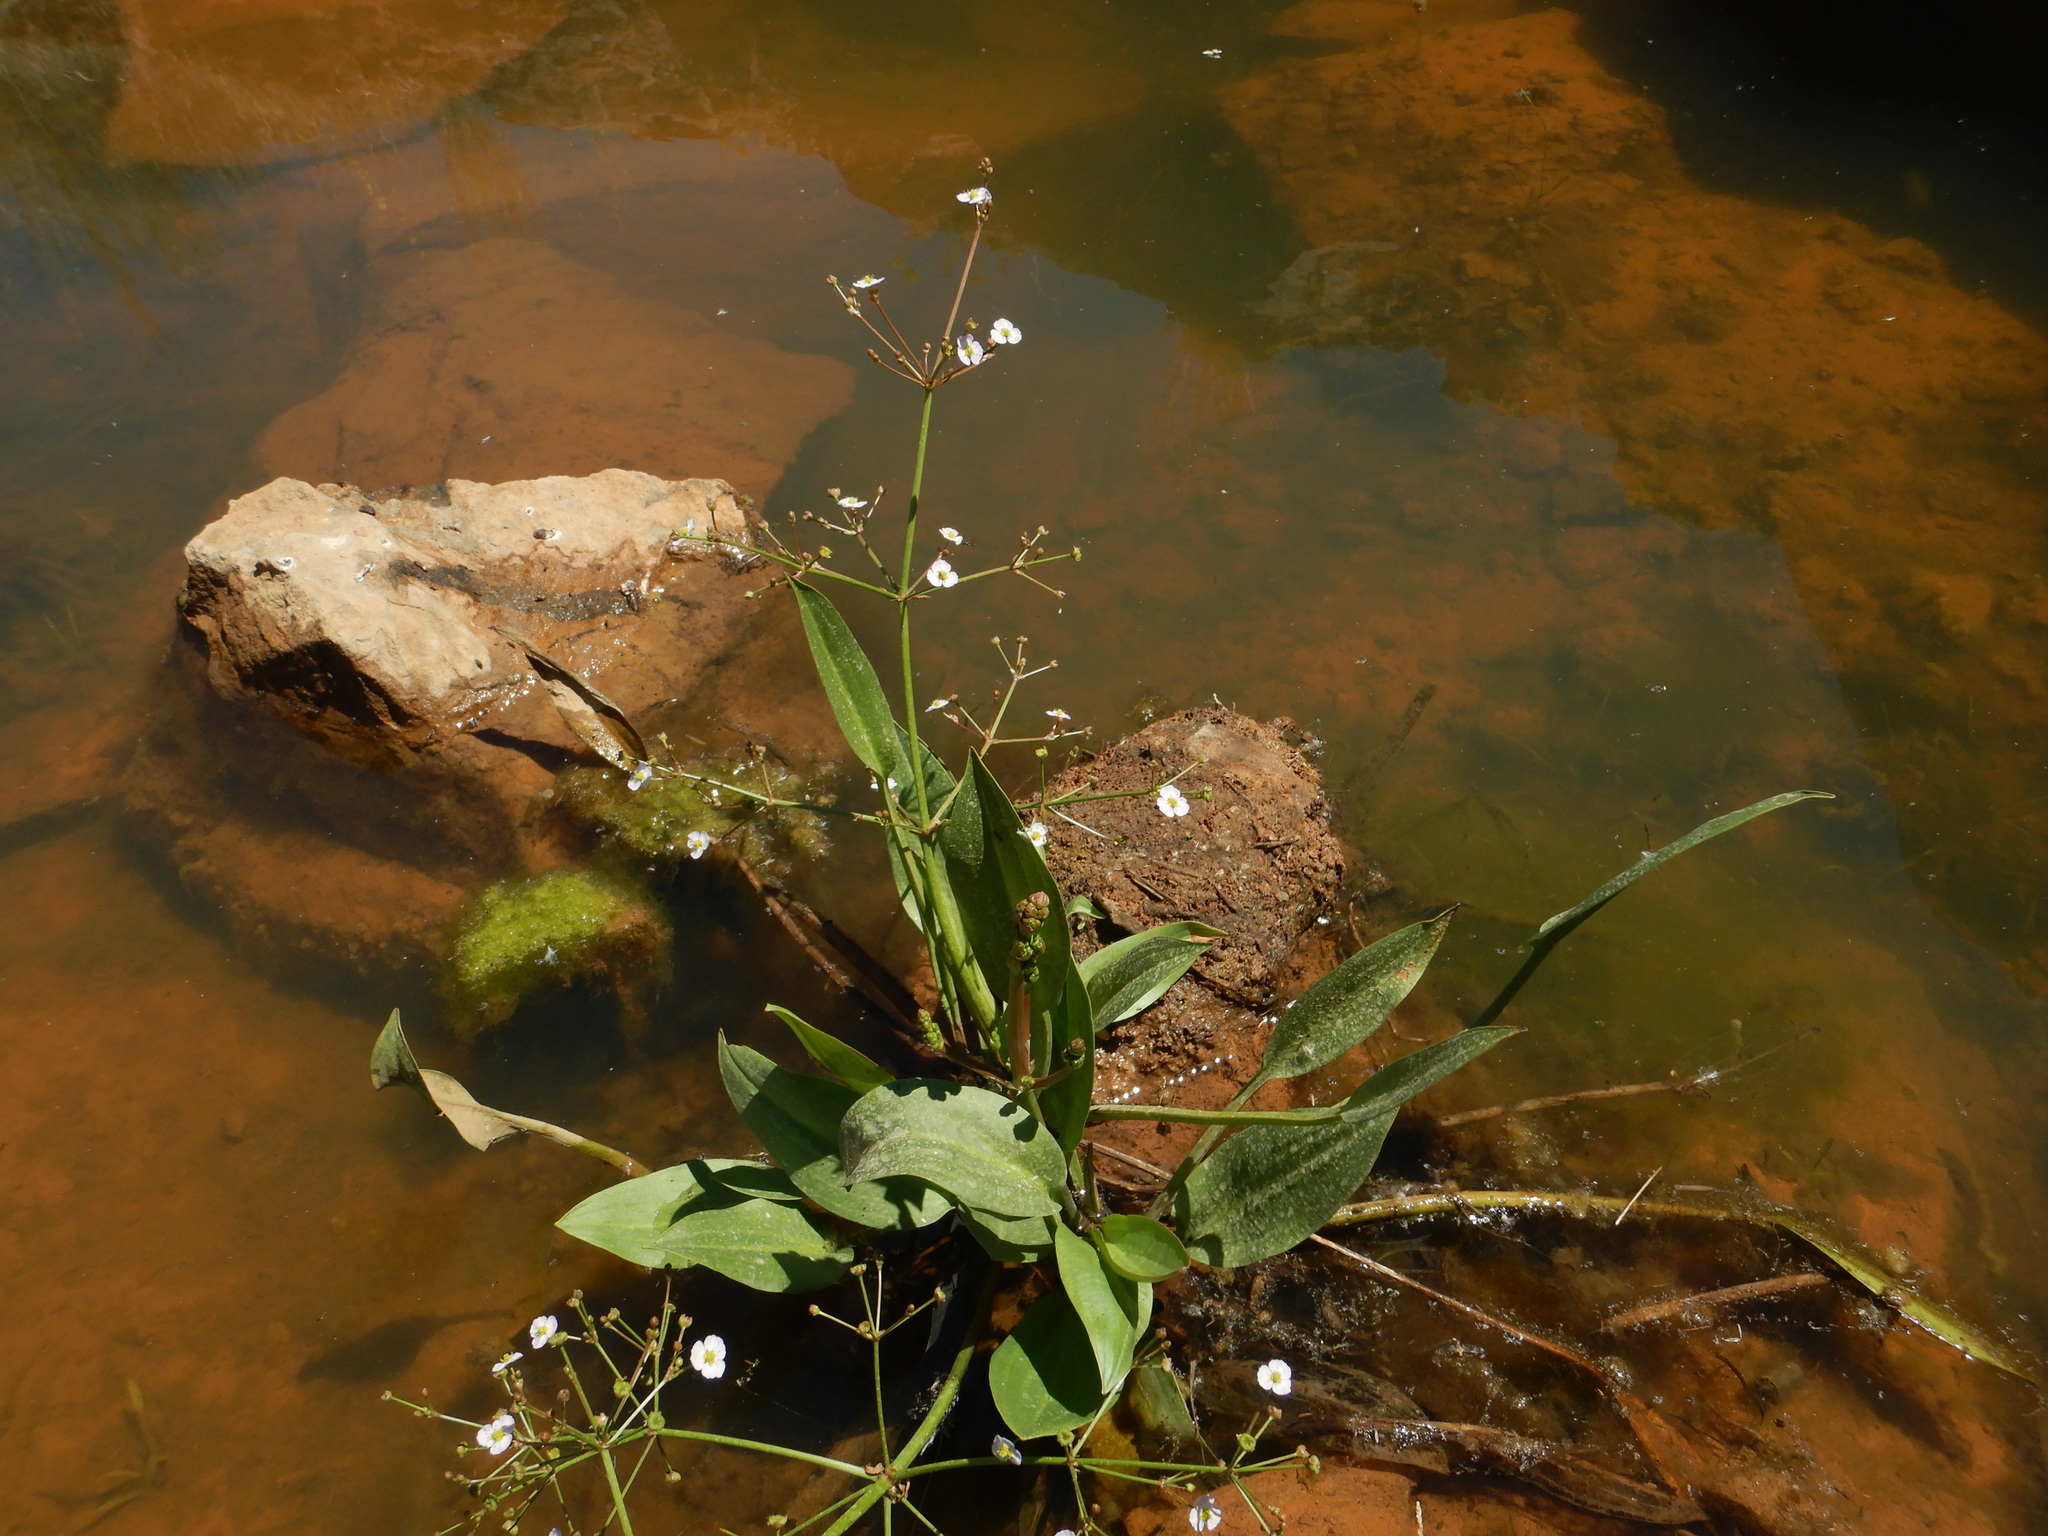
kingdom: Plantae
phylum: Tracheophyta
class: Liliopsida
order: Alismatales
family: Alismataceae
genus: Alisma
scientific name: Alisma lanceolatum
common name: Narrow-leaved water-plantain
